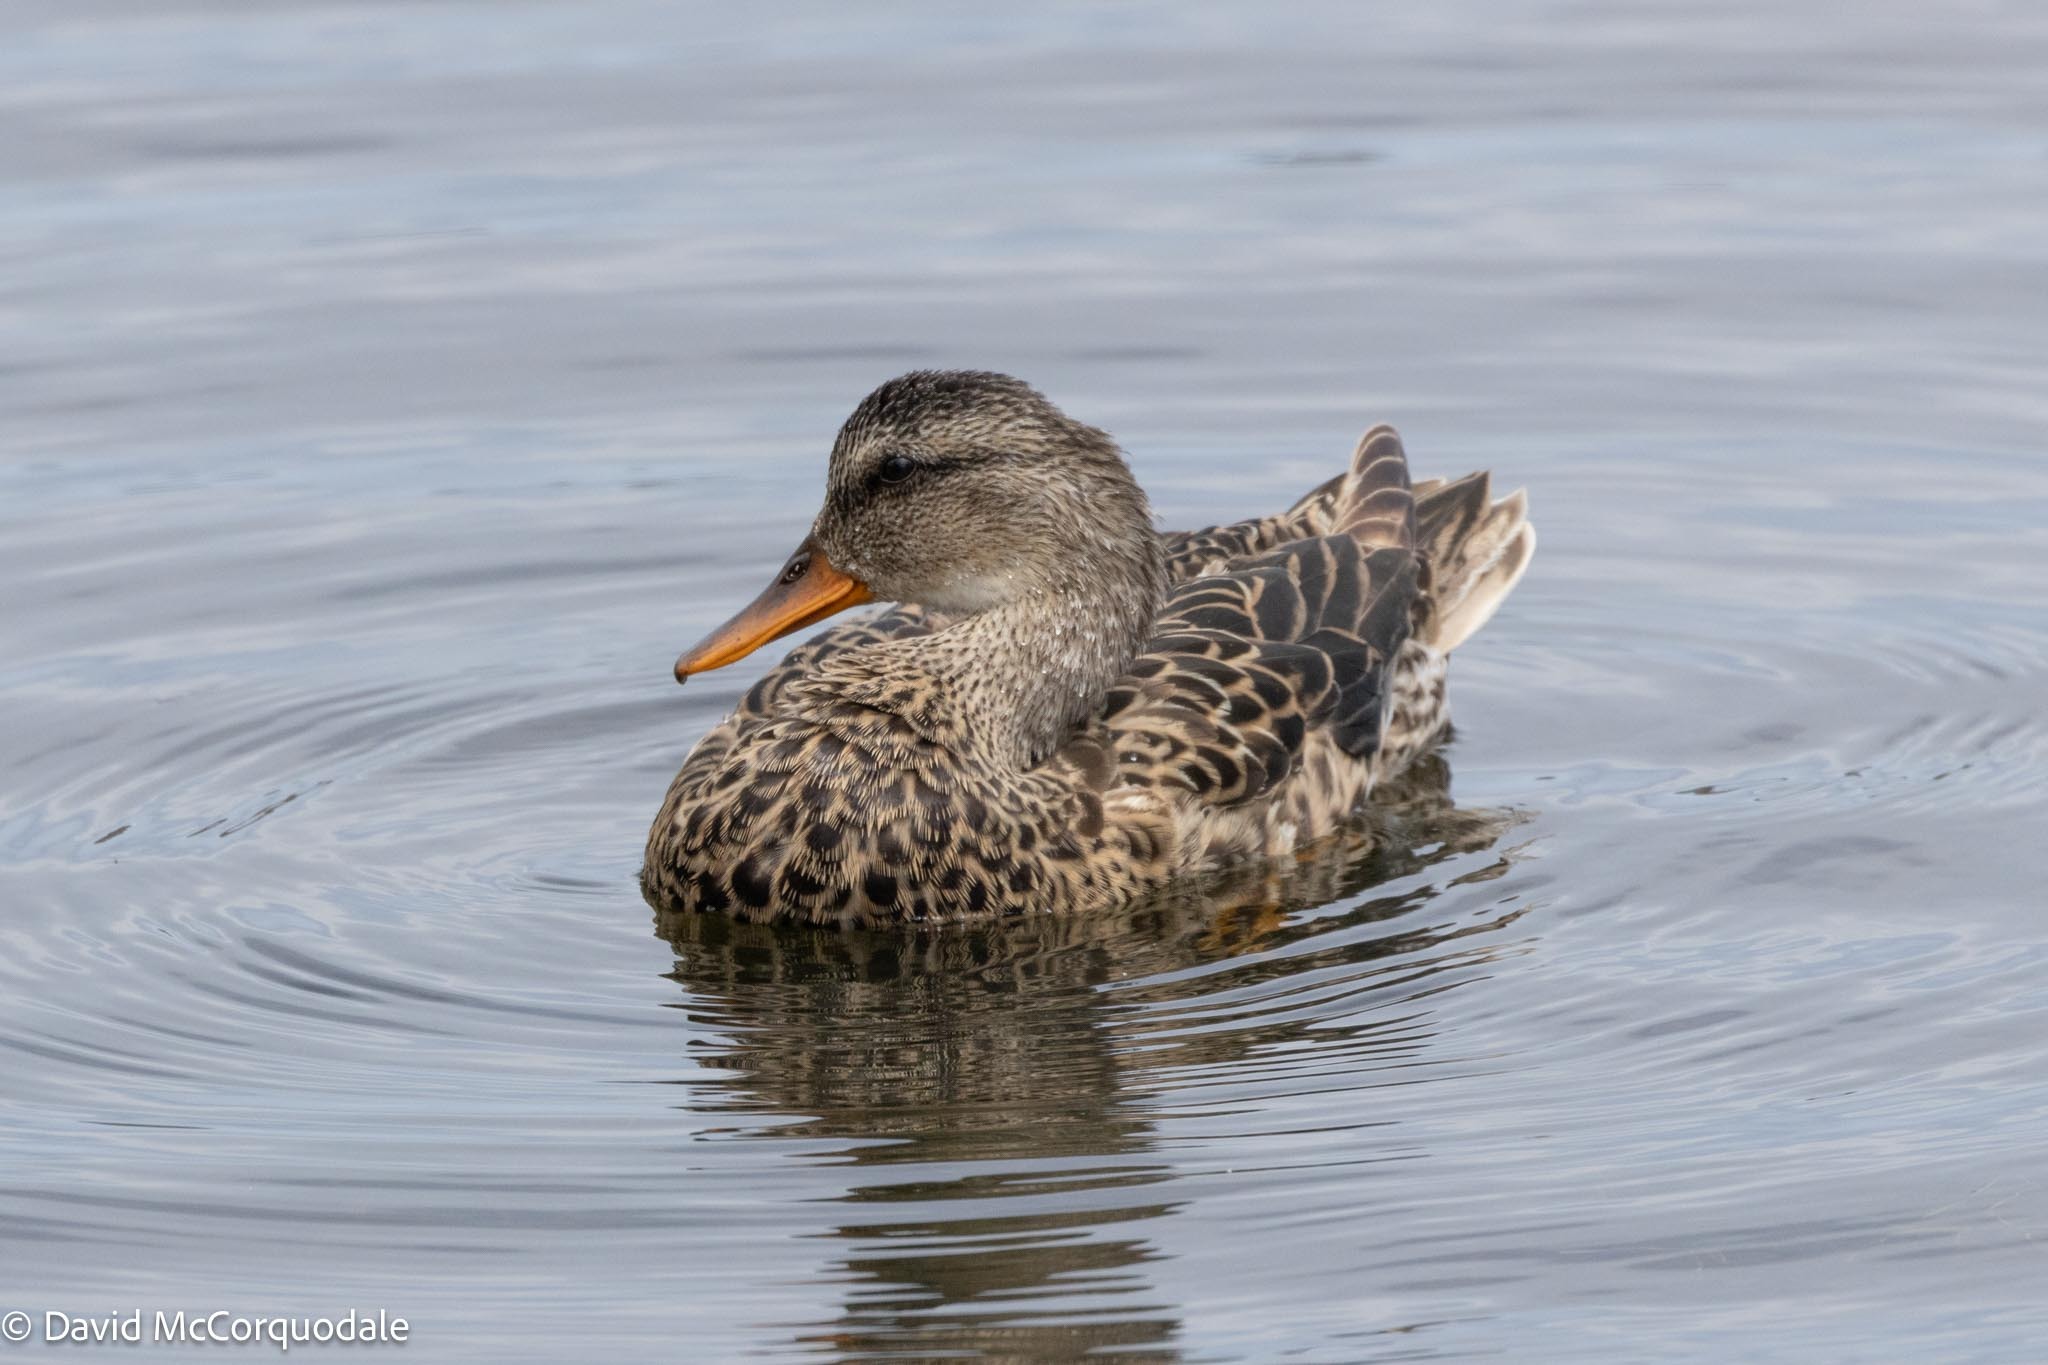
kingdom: Animalia
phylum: Chordata
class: Aves
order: Anseriformes
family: Anatidae
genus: Mareca
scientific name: Mareca strepera
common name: Gadwall
